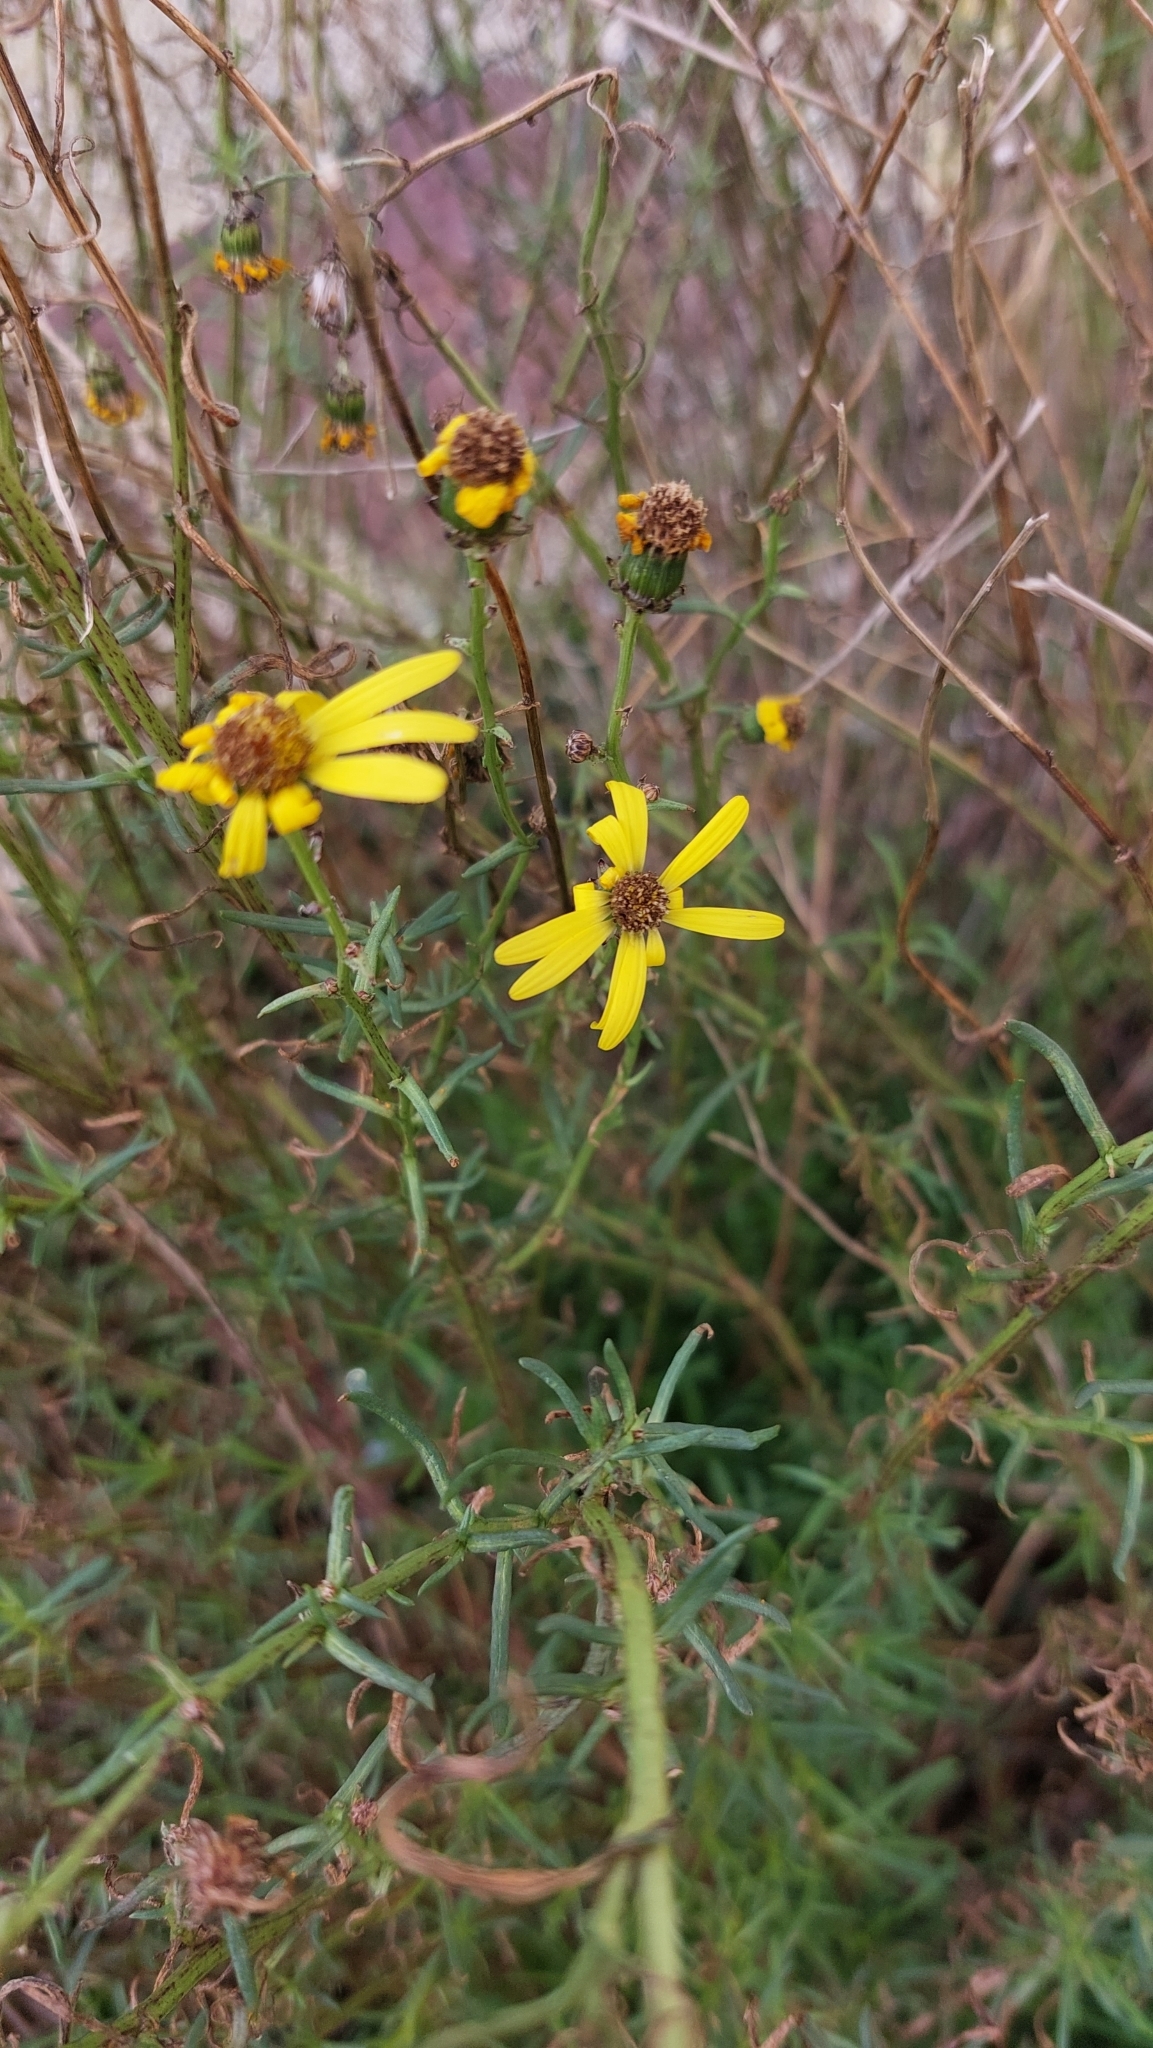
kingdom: Plantae
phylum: Tracheophyta
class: Magnoliopsida
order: Asterales
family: Asteraceae
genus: Senecio
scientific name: Senecio inaequidens
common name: Narrow-leaved ragwort
